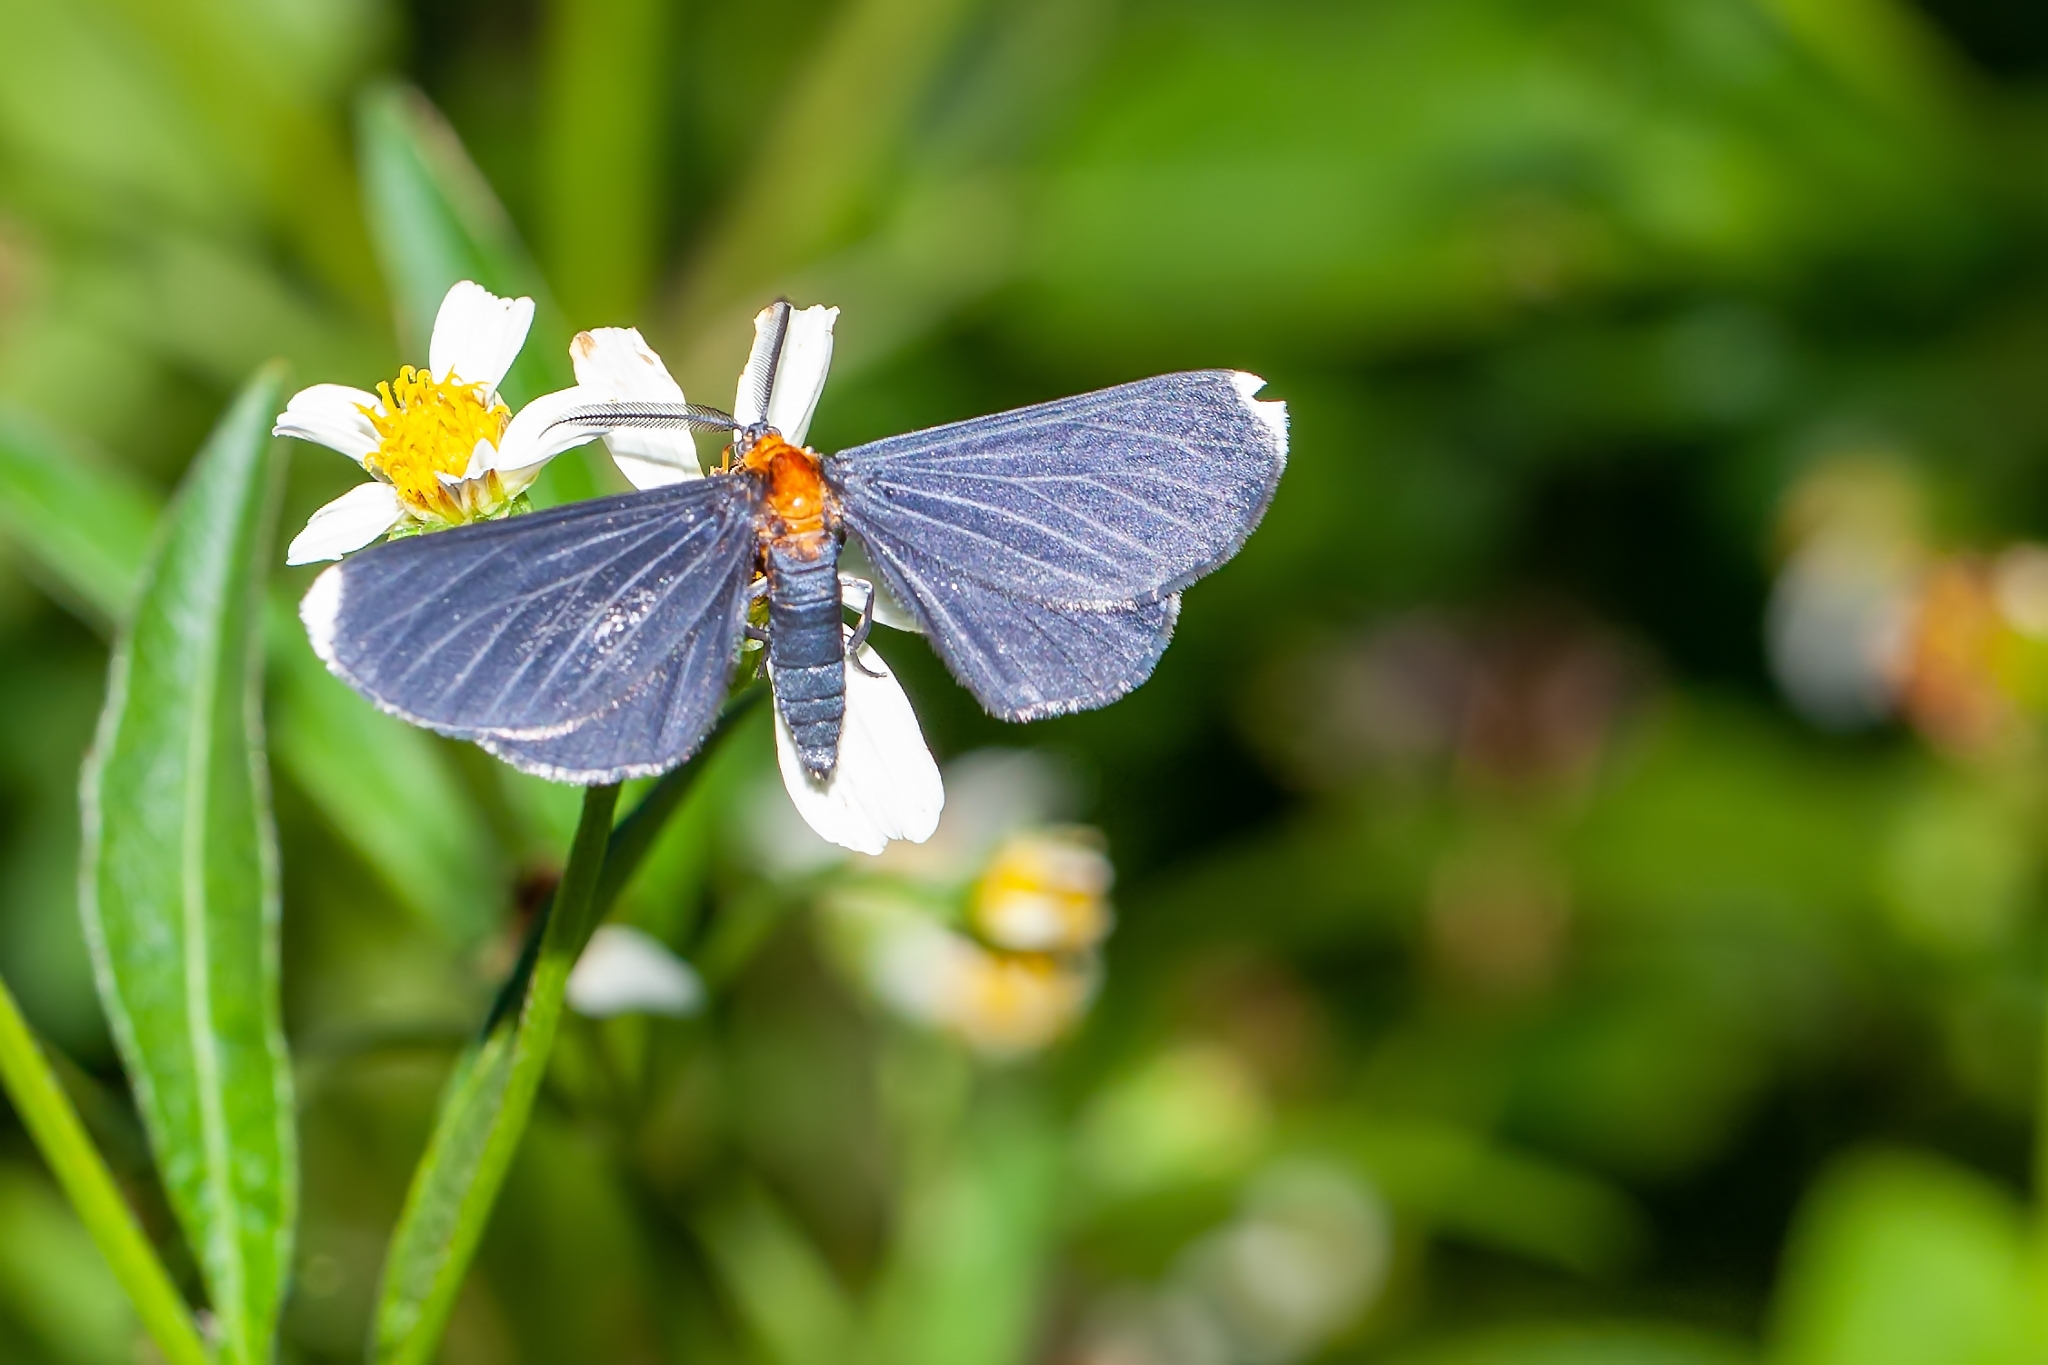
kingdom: Animalia
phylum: Arthropoda
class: Insecta
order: Lepidoptera
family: Geometridae
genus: Melanchroia
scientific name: Melanchroia chephise
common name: White-tipped black
